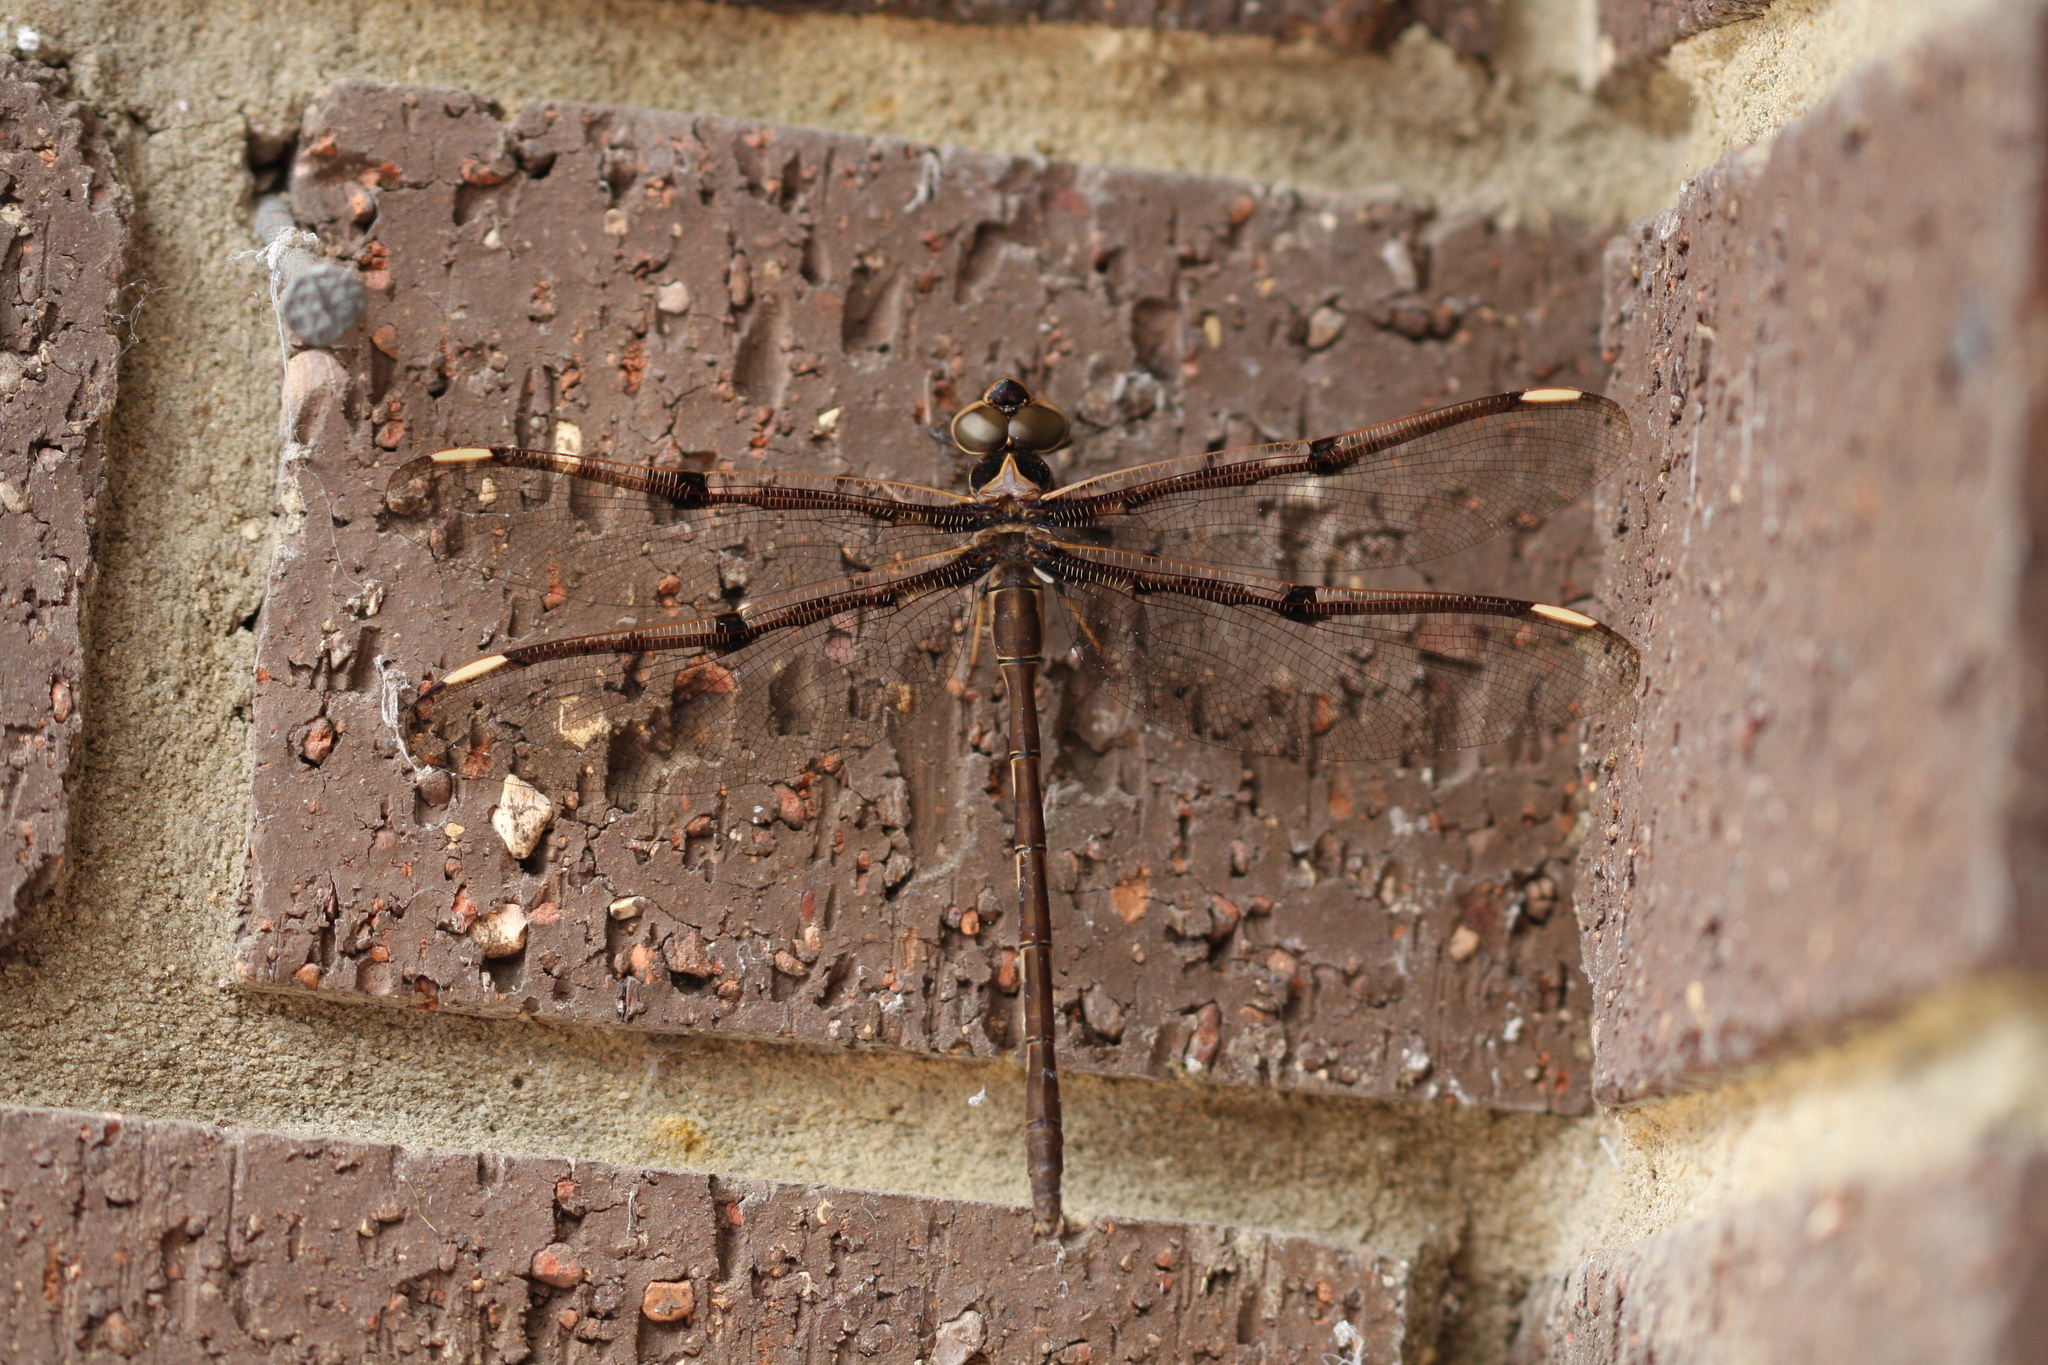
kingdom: Animalia
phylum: Arthropoda
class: Insecta
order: Odonata
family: Aeshnidae
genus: Telephlebia
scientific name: Telephlebia godeffroyi
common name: Eastern evening darner
